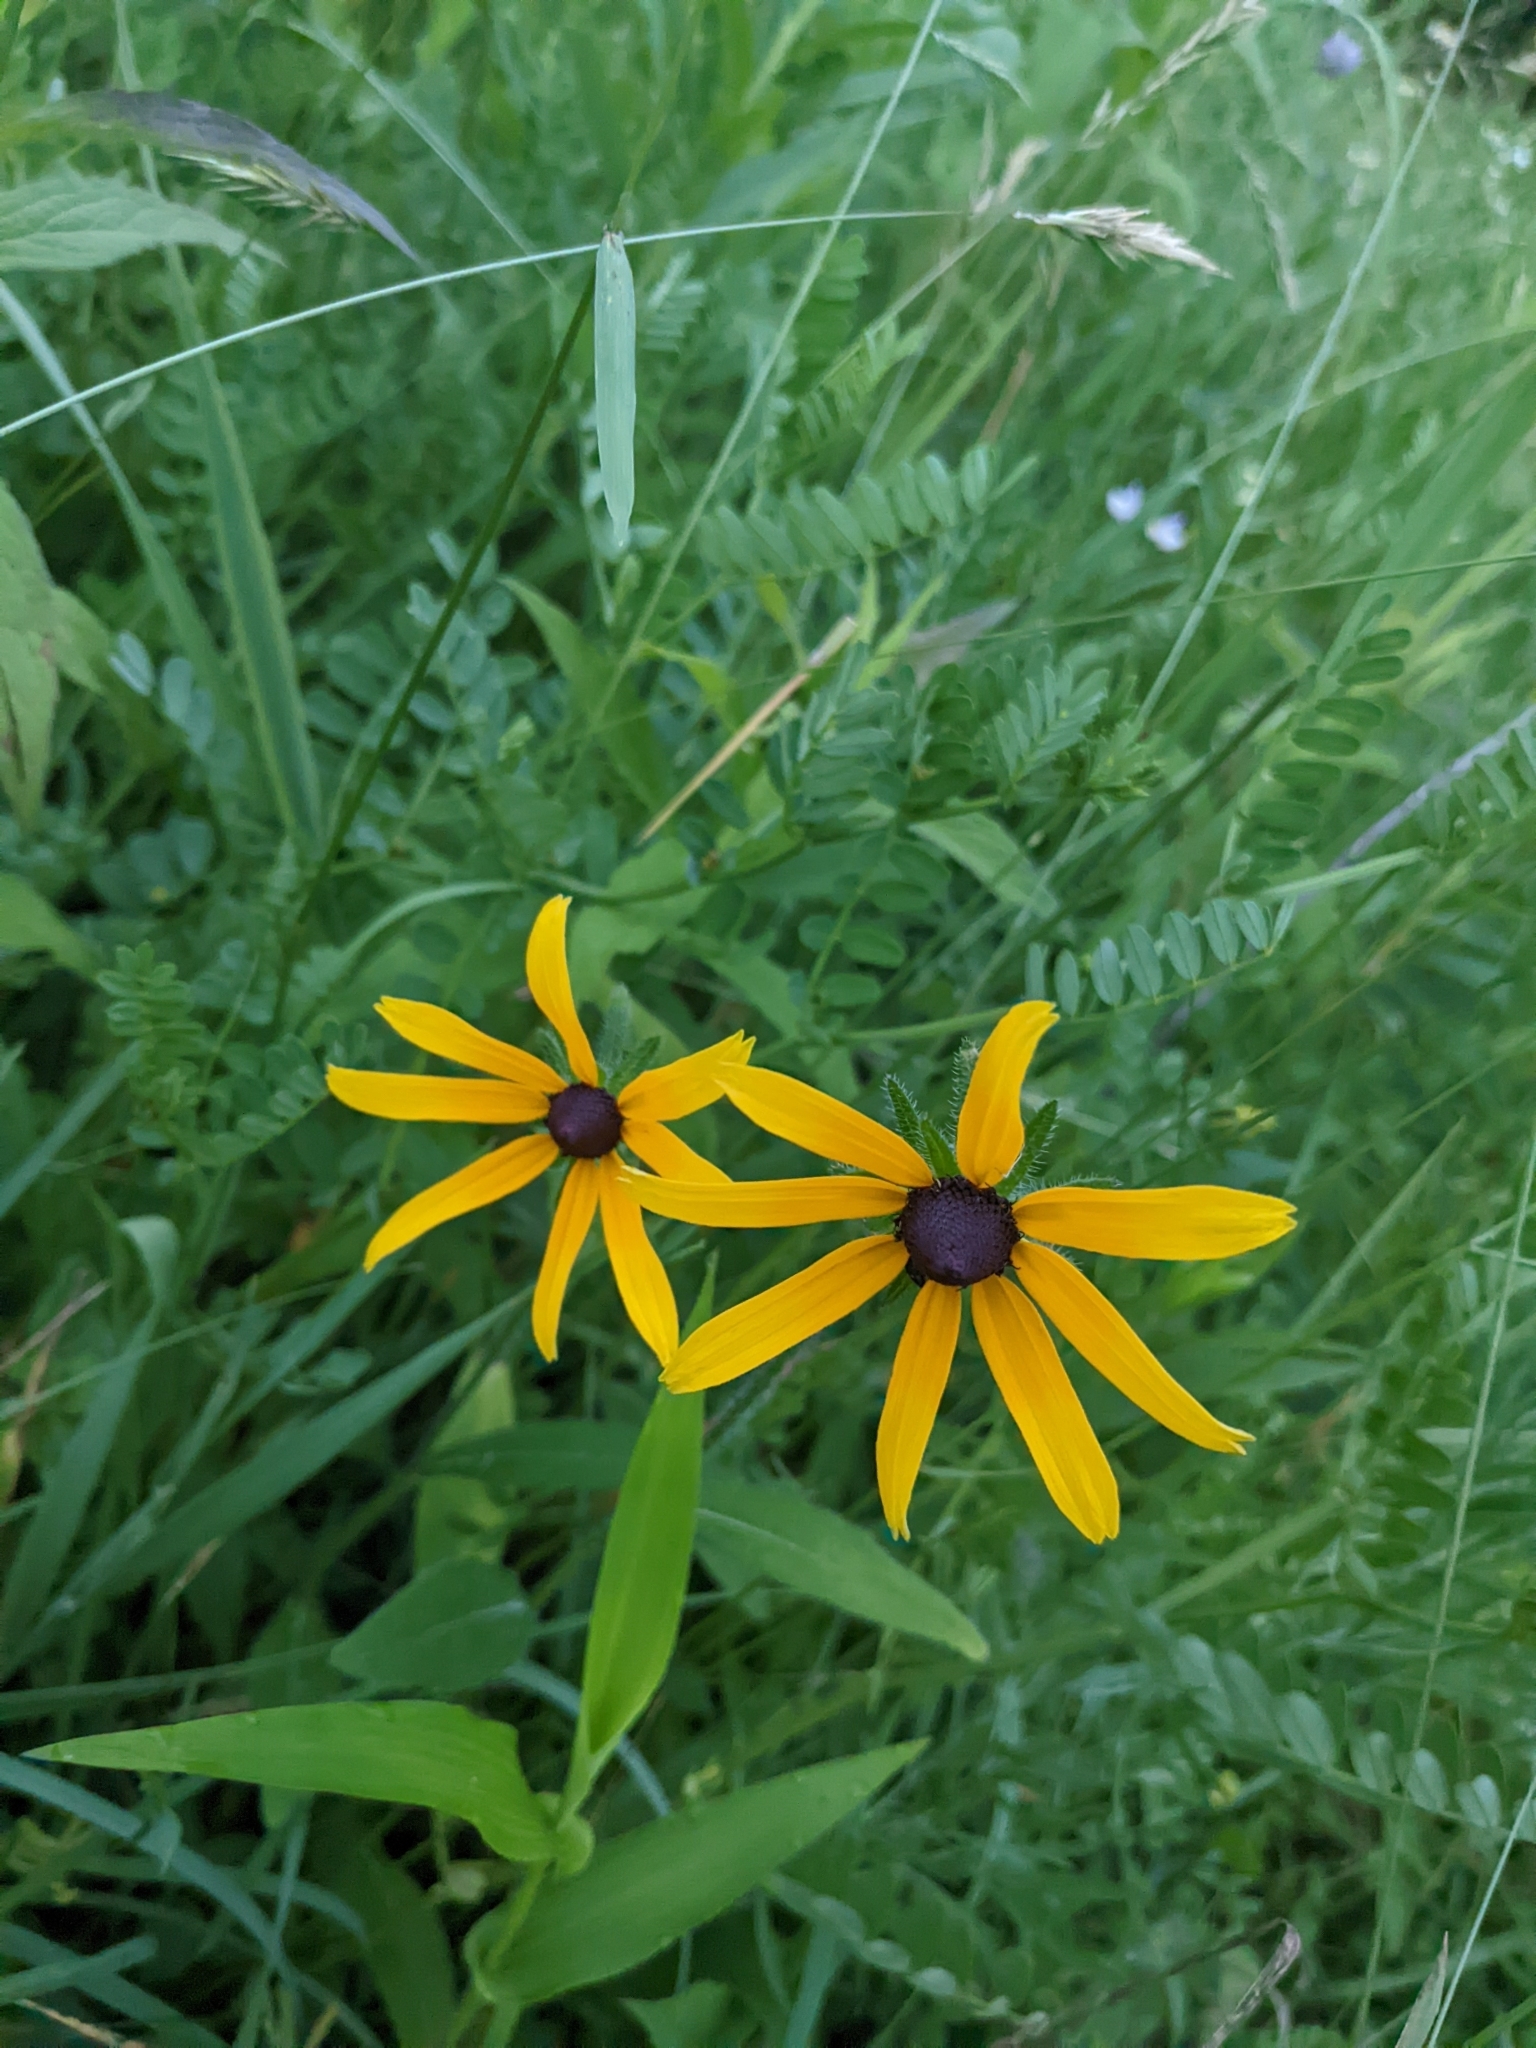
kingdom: Plantae
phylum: Tracheophyta
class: Magnoliopsida
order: Asterales
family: Asteraceae
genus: Rudbeckia
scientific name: Rudbeckia hirta
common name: Black-eyed-susan
